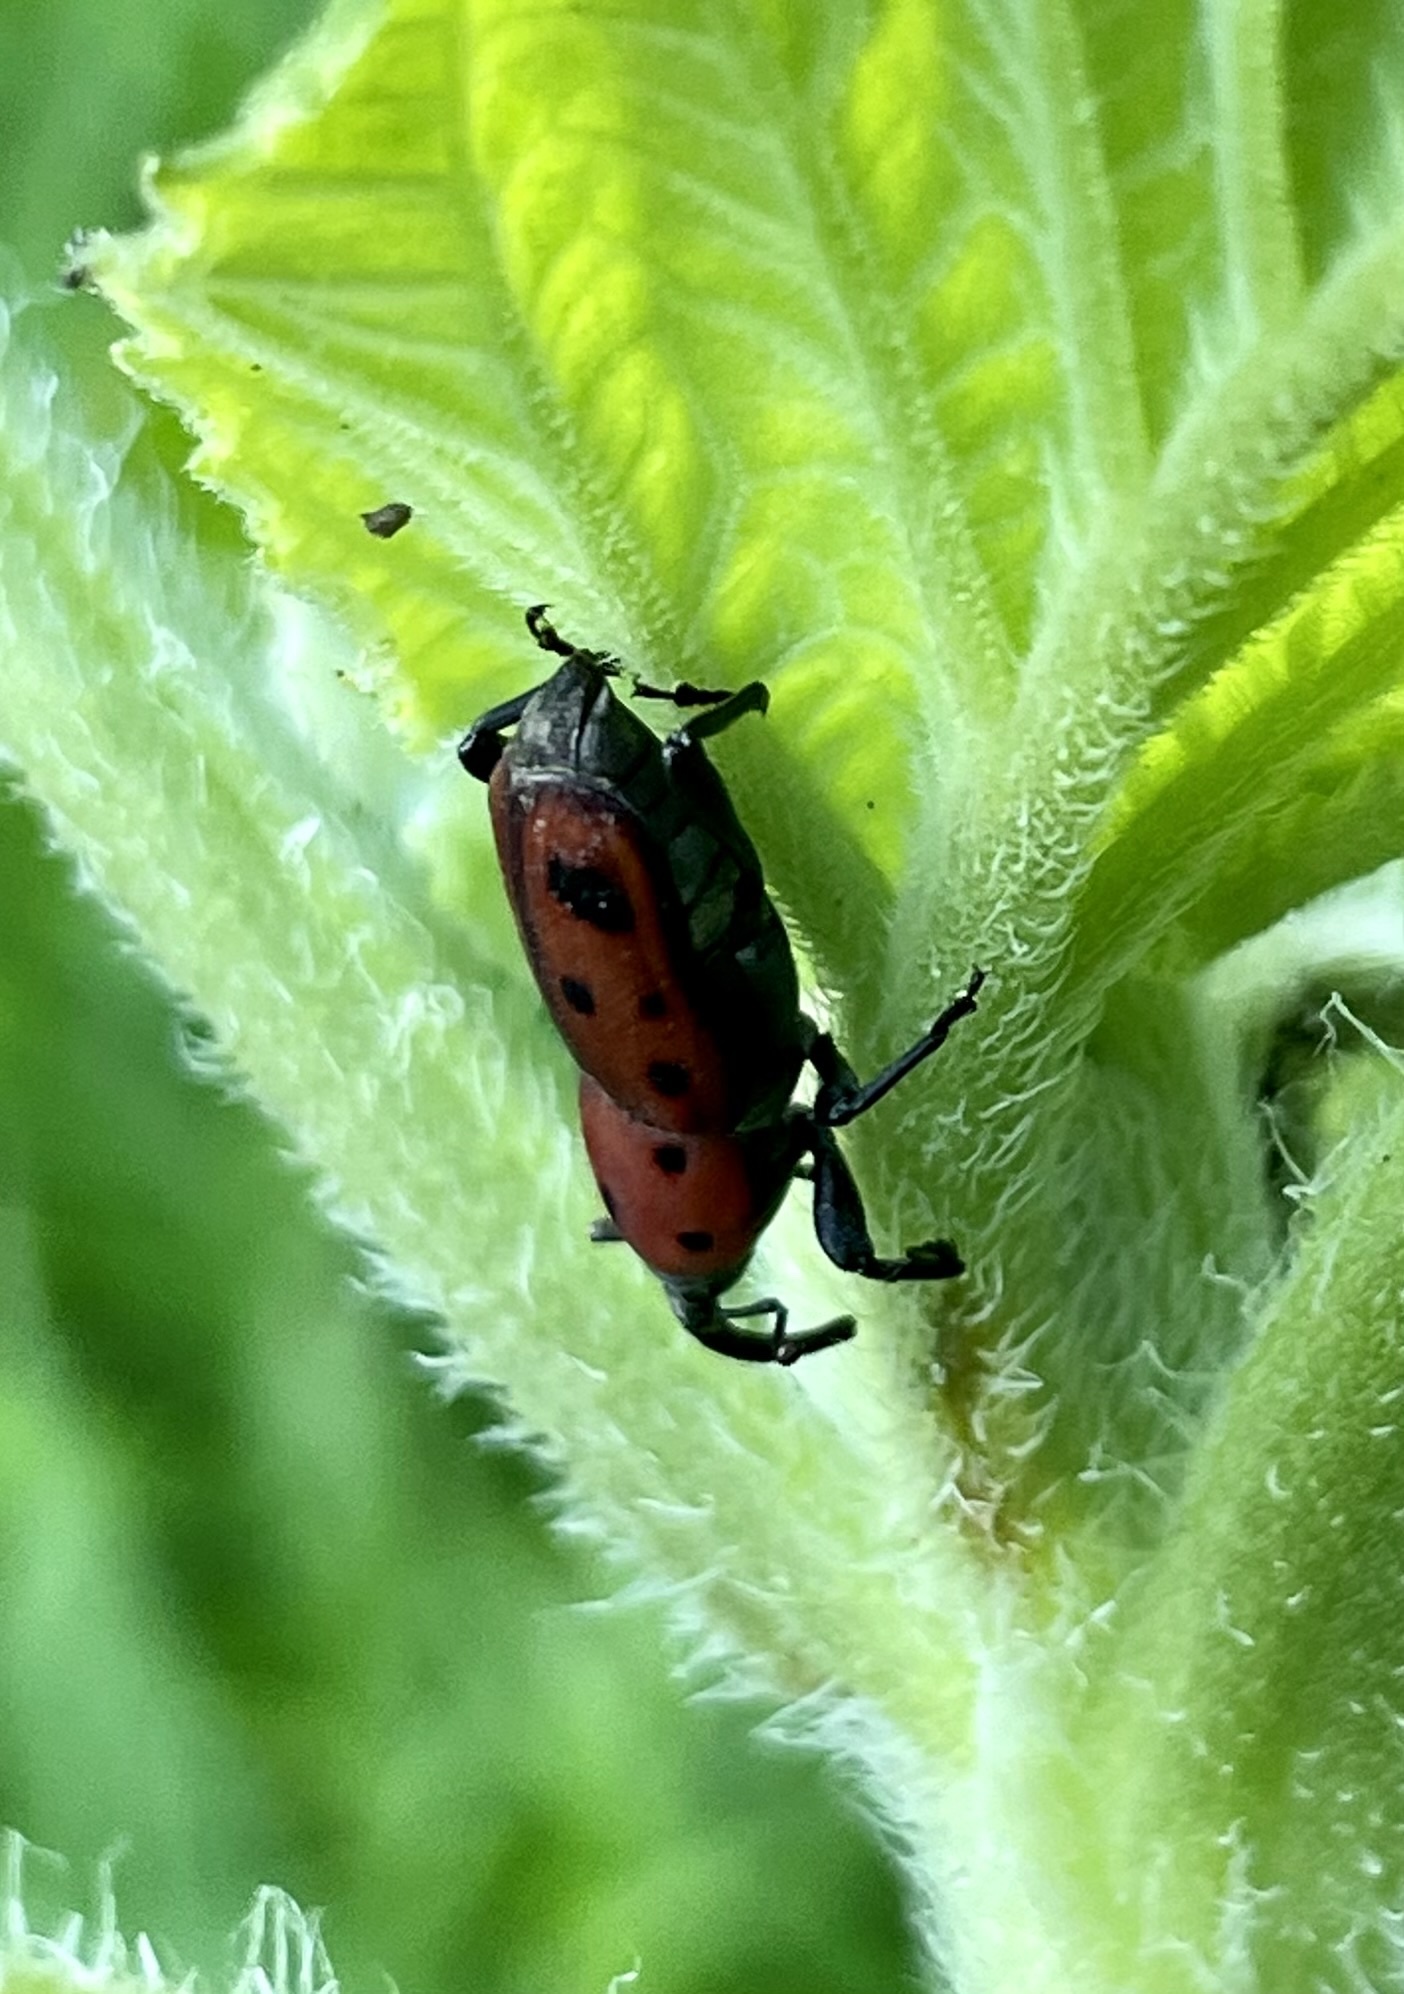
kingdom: Animalia
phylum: Arthropoda
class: Insecta
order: Coleoptera
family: Dryophthoridae
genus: Rhodobaenus
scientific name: Rhodobaenus tredecimpunctatus
